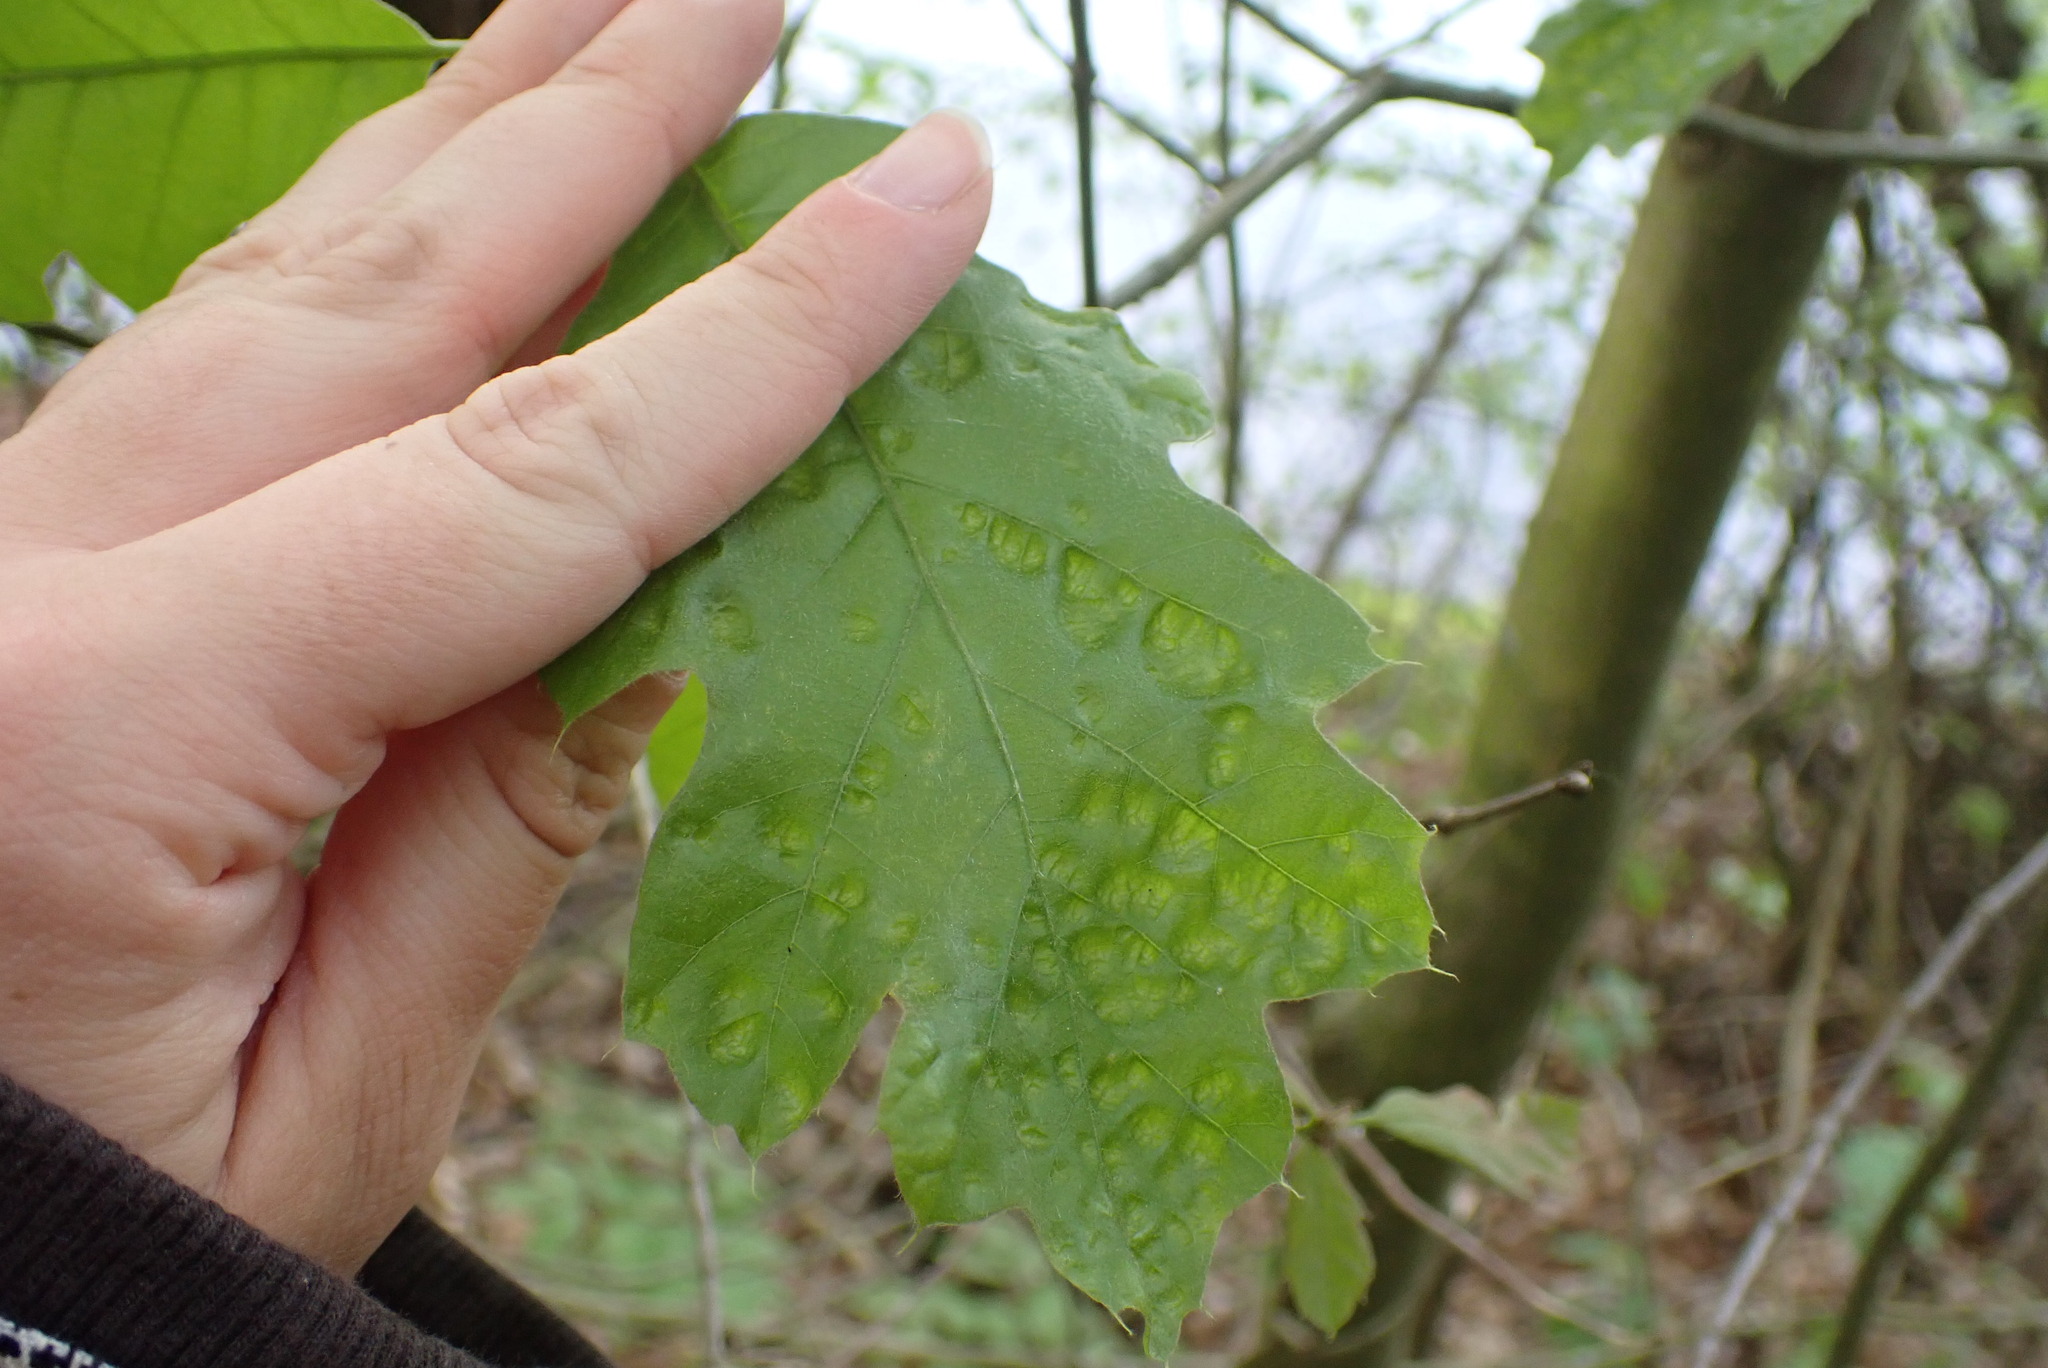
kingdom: Fungi
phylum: Ascomycota
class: Taphrinomycetes
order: Taphrinales
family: Taphrinaceae
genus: Taphrina
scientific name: Taphrina caerulescens
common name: Oak leaf blister
